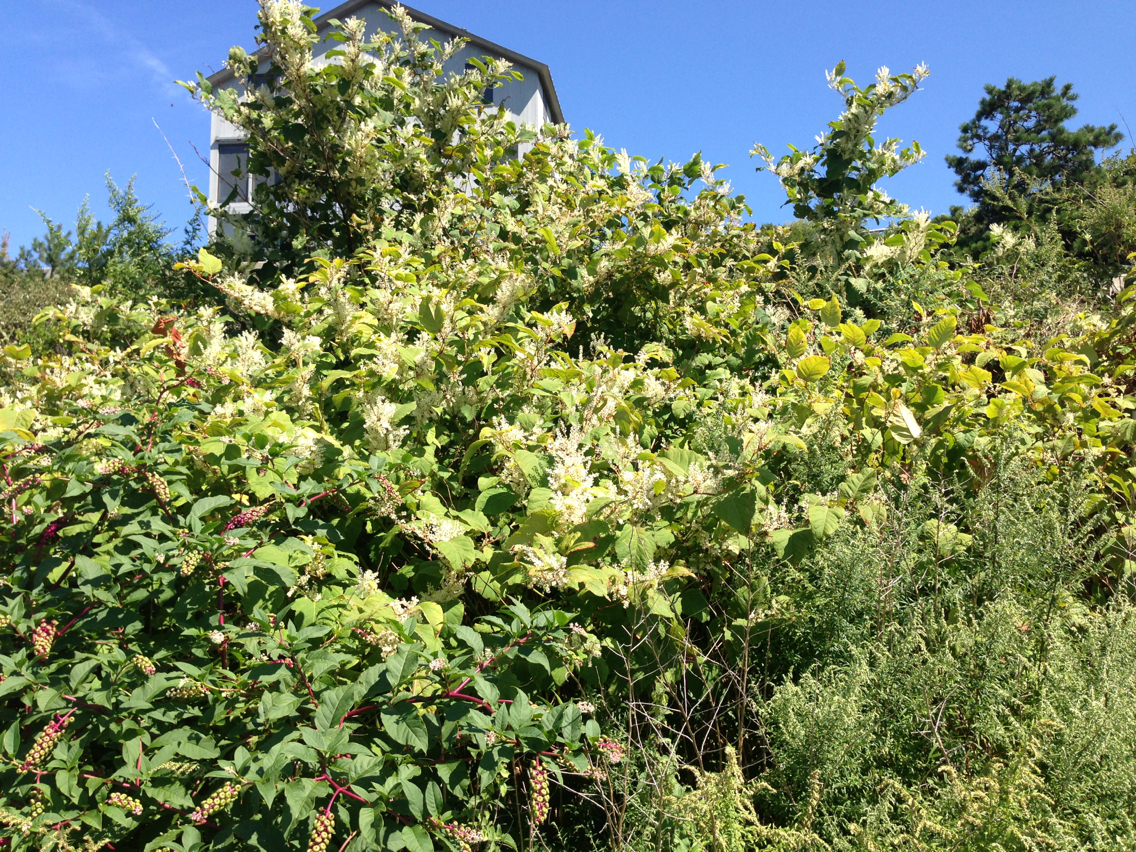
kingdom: Plantae
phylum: Tracheophyta
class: Magnoliopsida
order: Caryophyllales
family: Polygonaceae
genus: Reynoutria
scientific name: Reynoutria japonica
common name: Japanese knotweed
